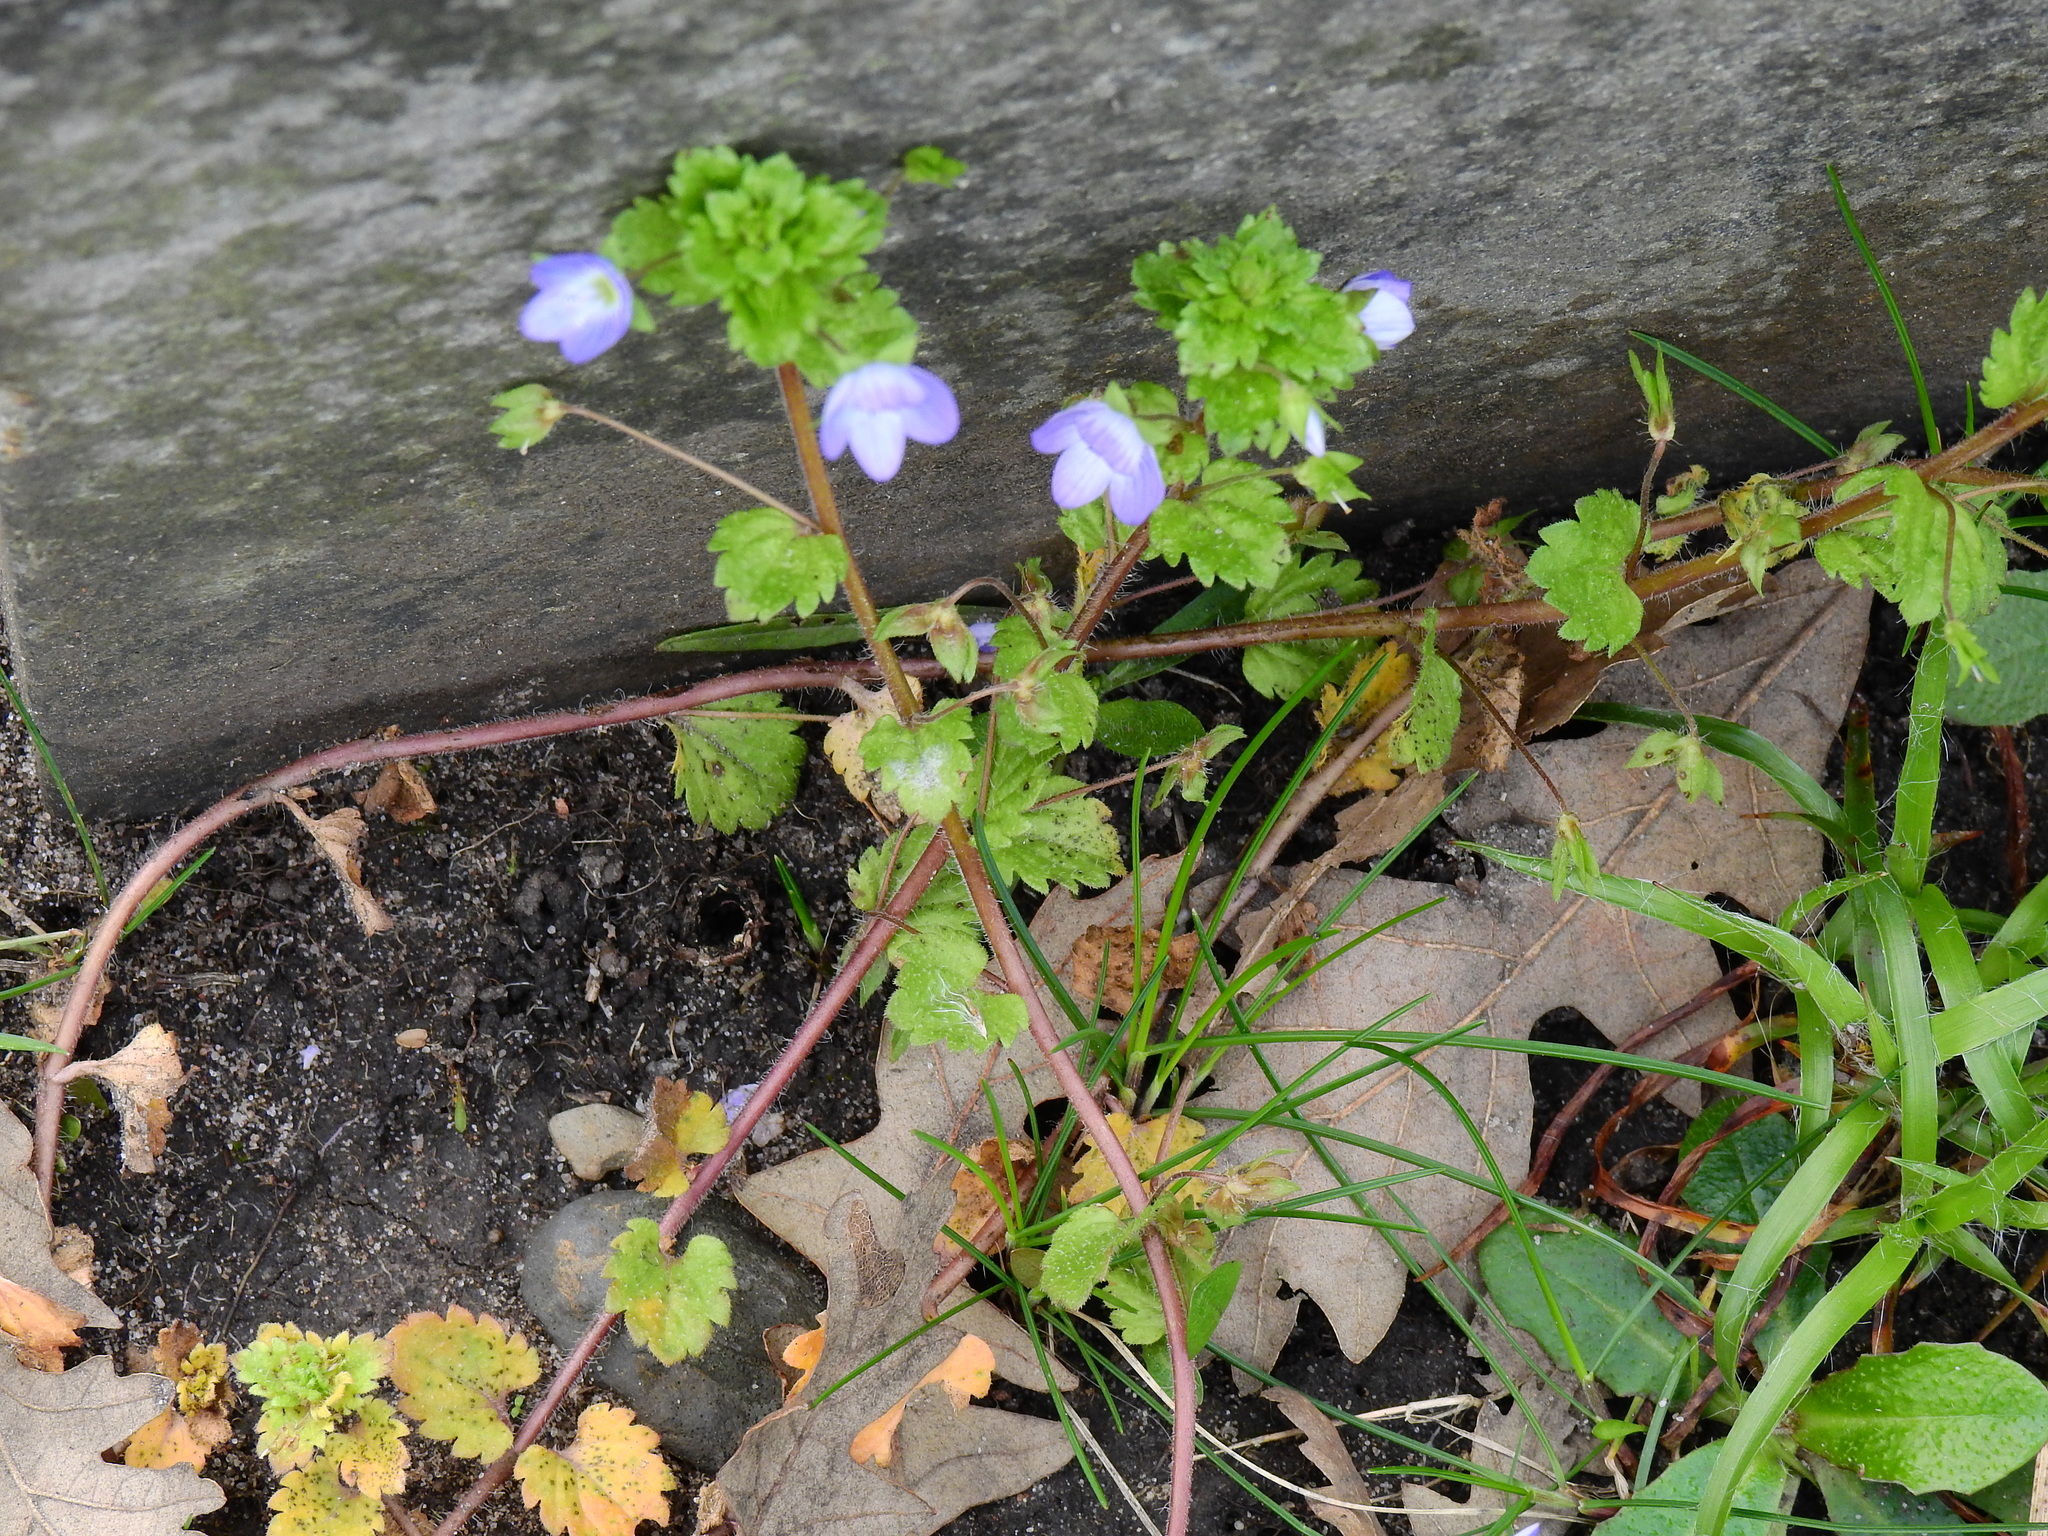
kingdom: Plantae
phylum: Tracheophyta
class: Magnoliopsida
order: Lamiales
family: Plantaginaceae
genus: Veronica
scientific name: Veronica persica
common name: Common field-speedwell
